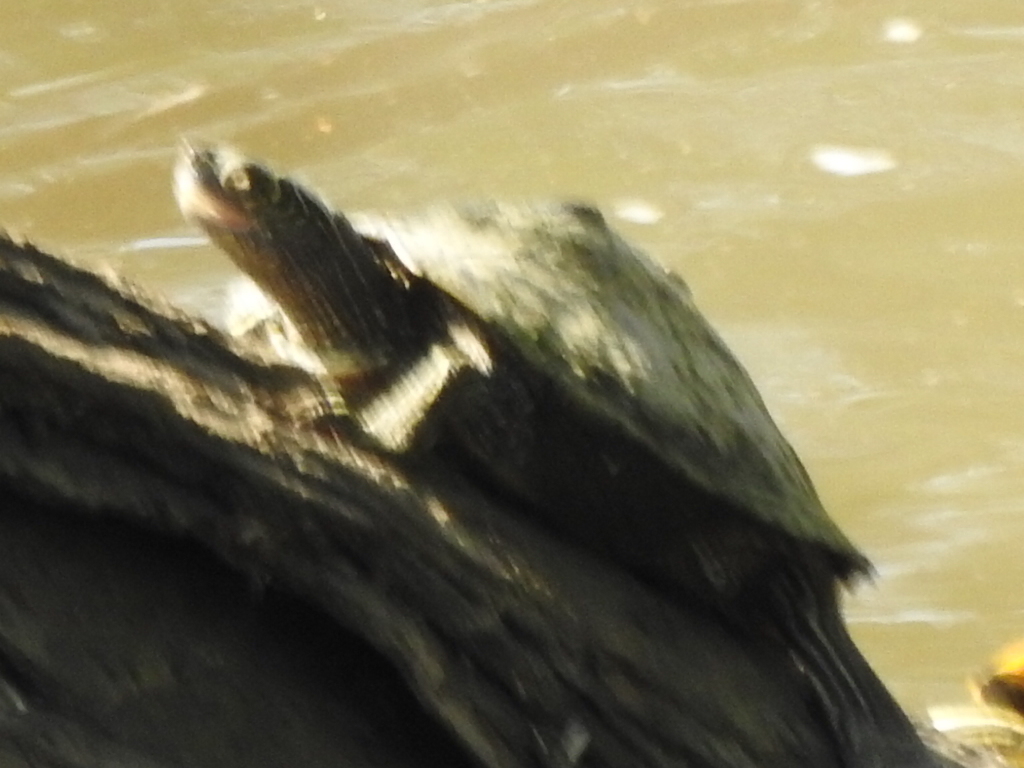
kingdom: Animalia
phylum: Chordata
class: Testudines
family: Emydidae
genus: Graptemys
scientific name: Graptemys pseudogeographica
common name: False map turtle
